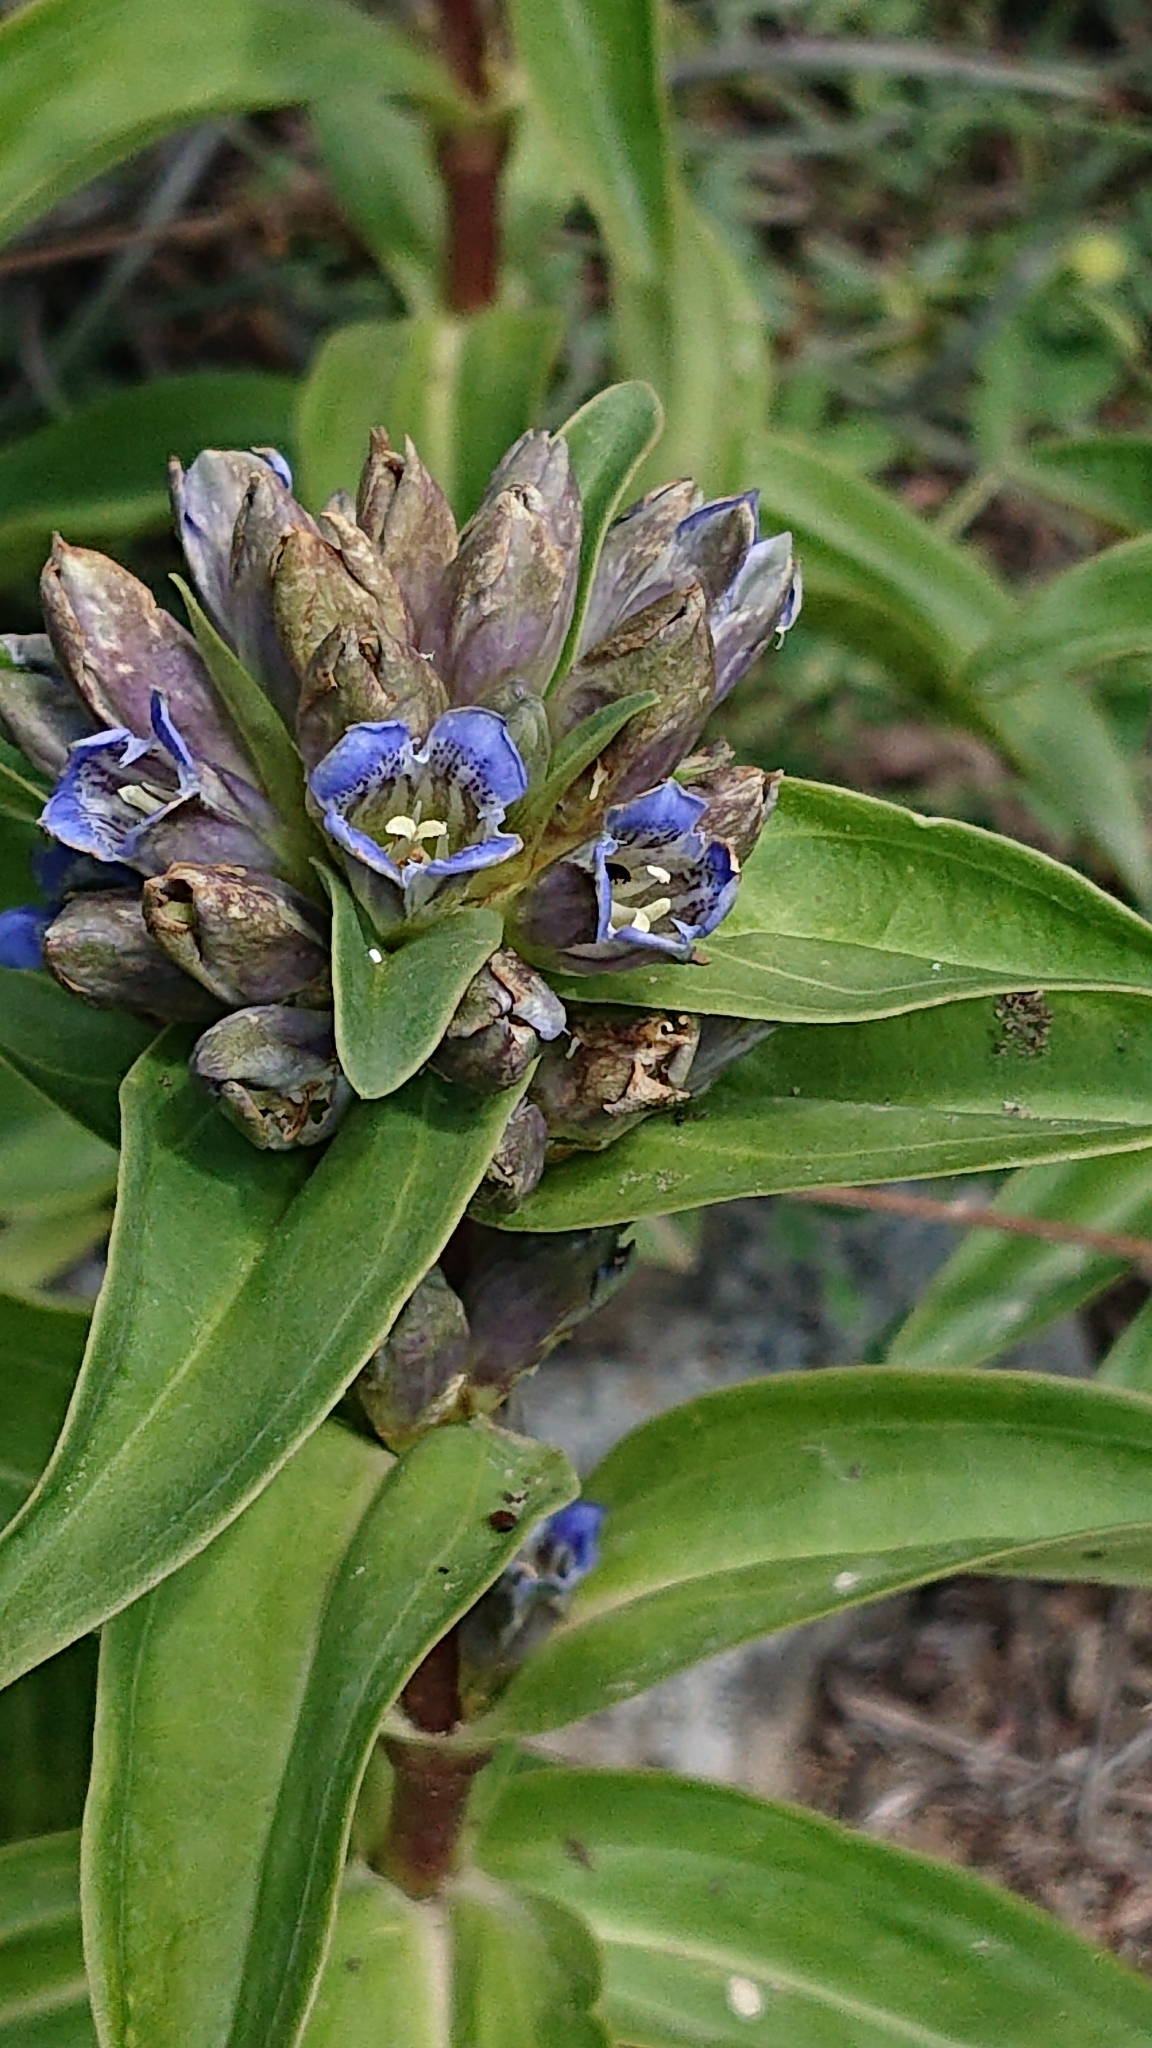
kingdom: Plantae
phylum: Tracheophyta
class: Magnoliopsida
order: Gentianales
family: Gentianaceae
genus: Gentiana
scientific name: Gentiana cruciata
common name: Cross gentian
